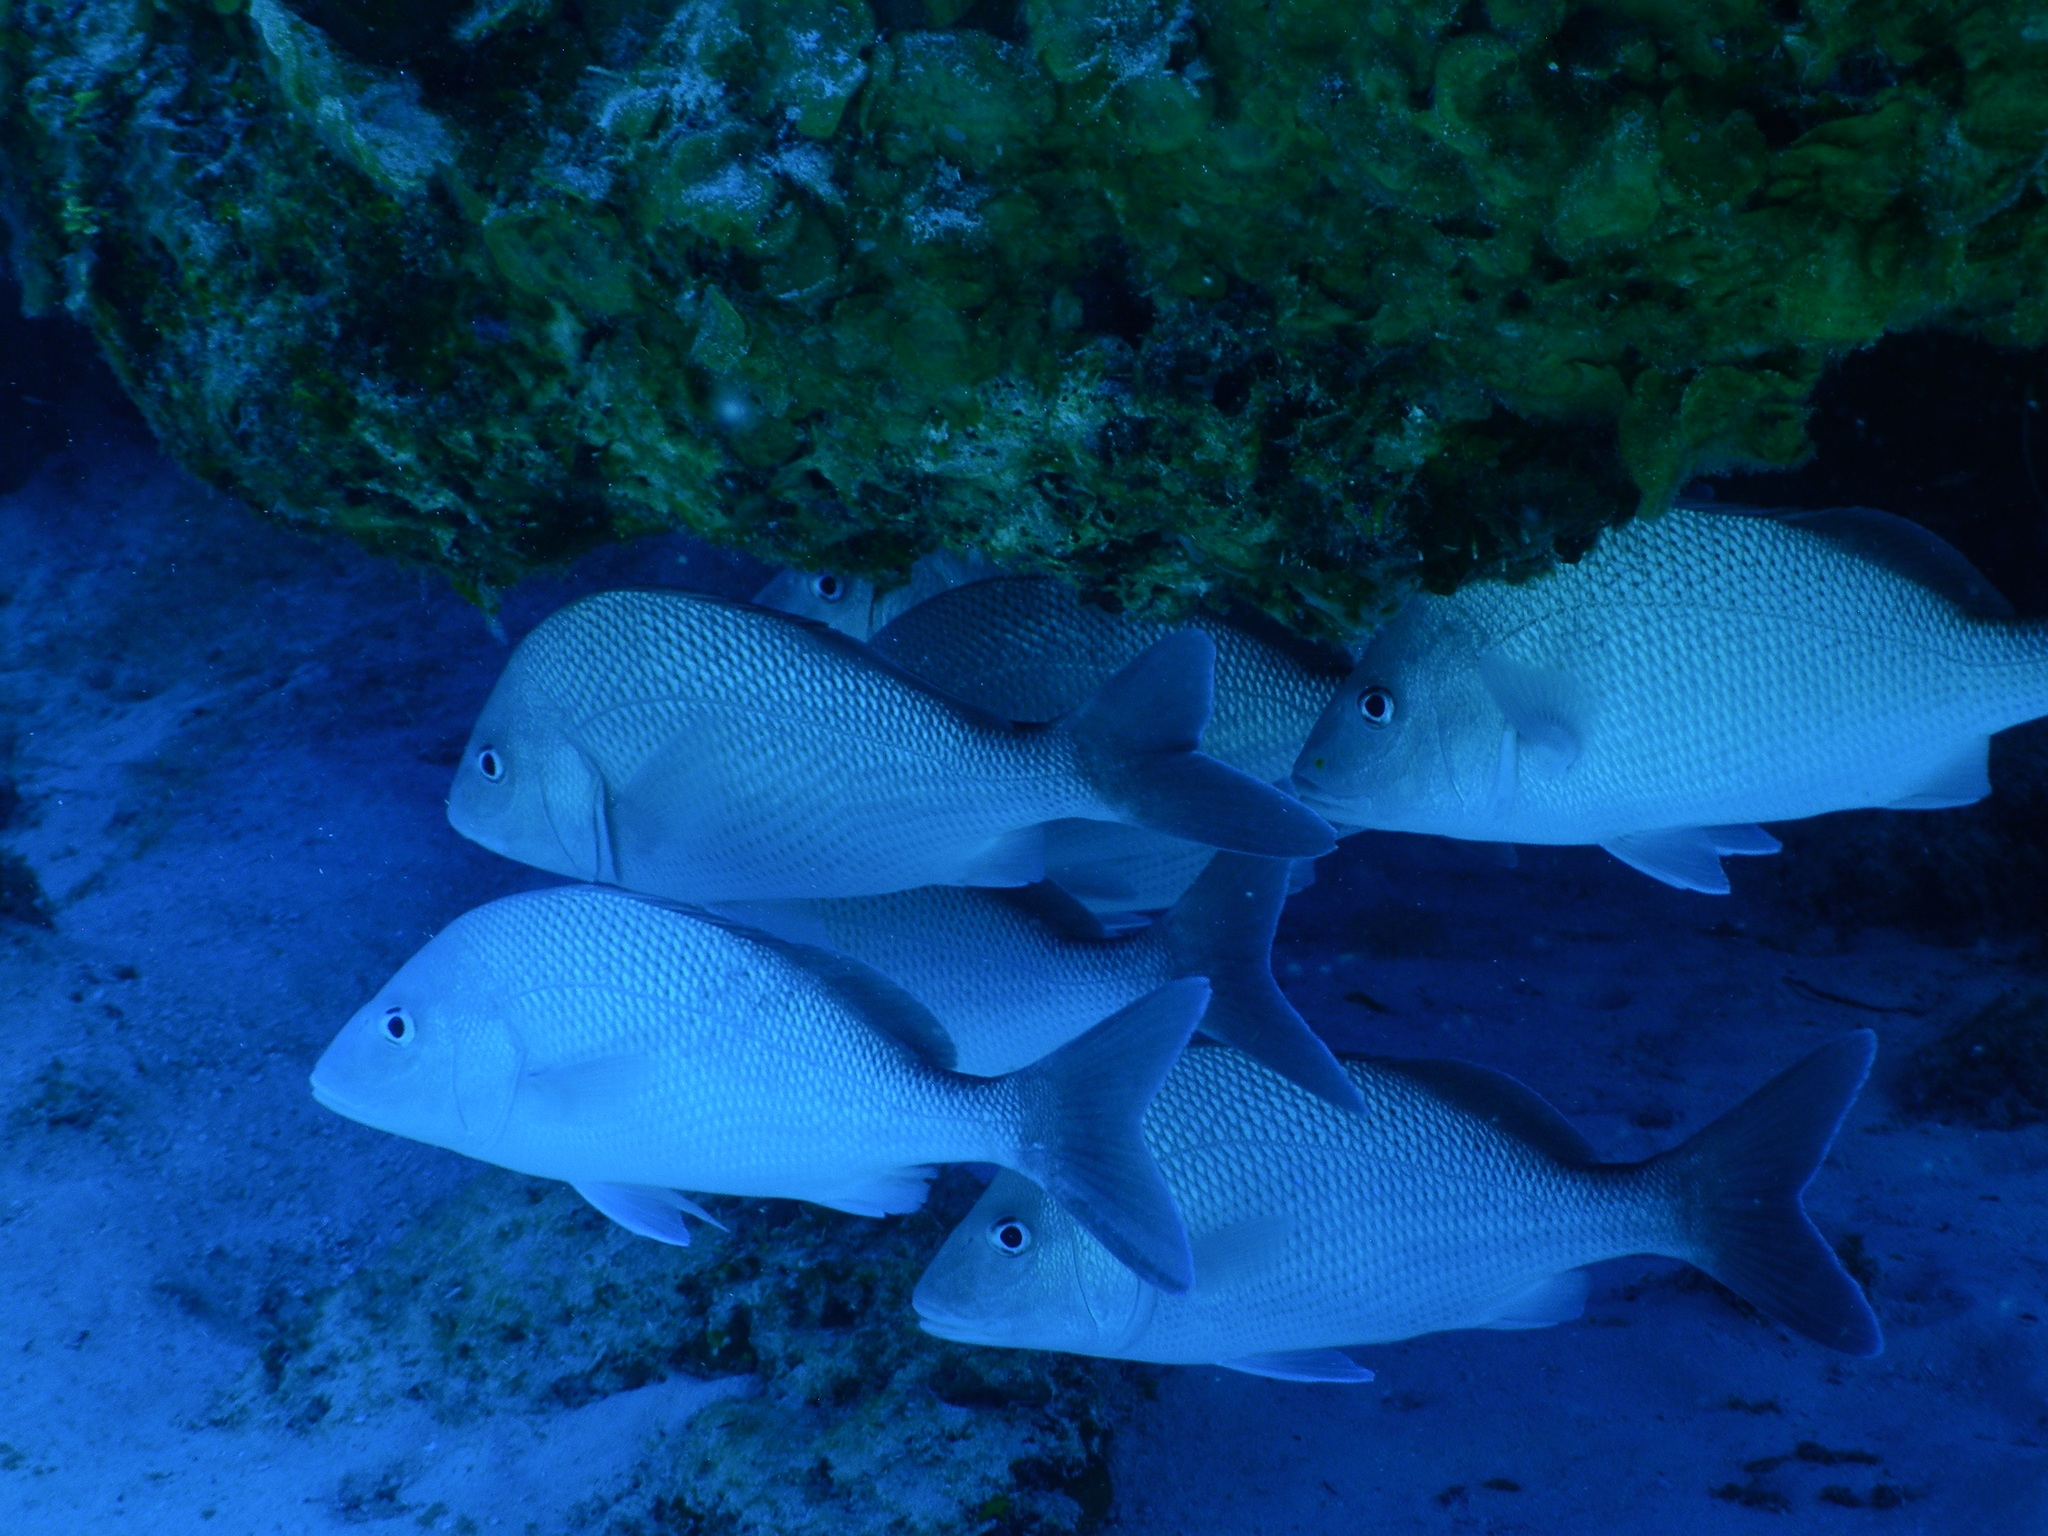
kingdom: Animalia
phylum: Chordata
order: Perciformes
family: Haemulidae
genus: Haemulon
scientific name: Haemulon album
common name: Margate
